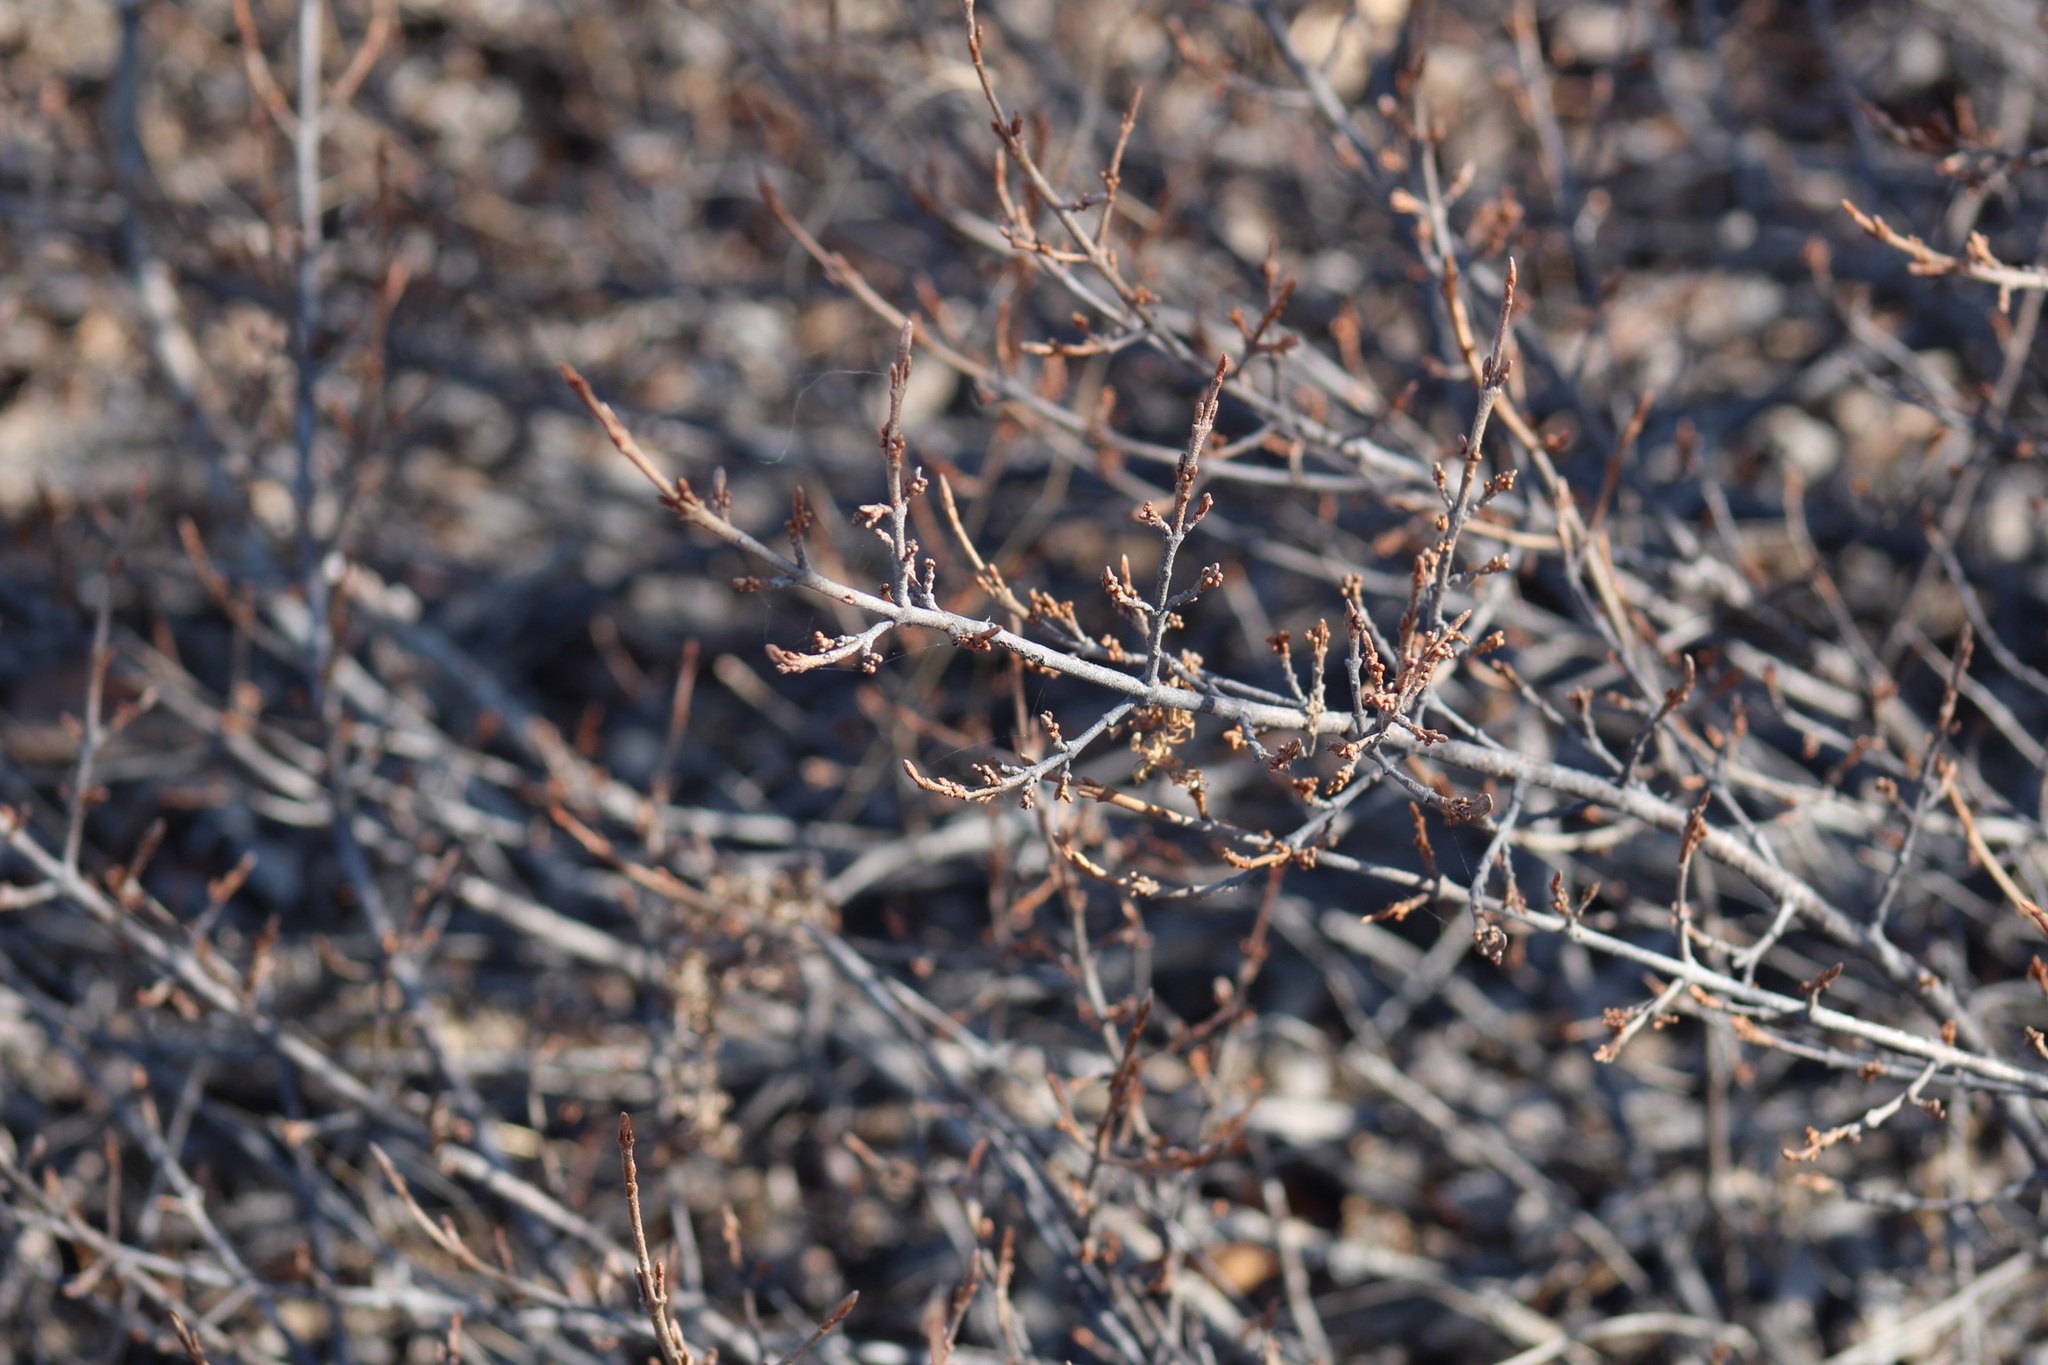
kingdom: Plantae
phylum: Tracheophyta
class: Magnoliopsida
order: Rosales
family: Elaeagnaceae
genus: Shepherdia
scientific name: Shepherdia canadensis
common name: Soapberry
